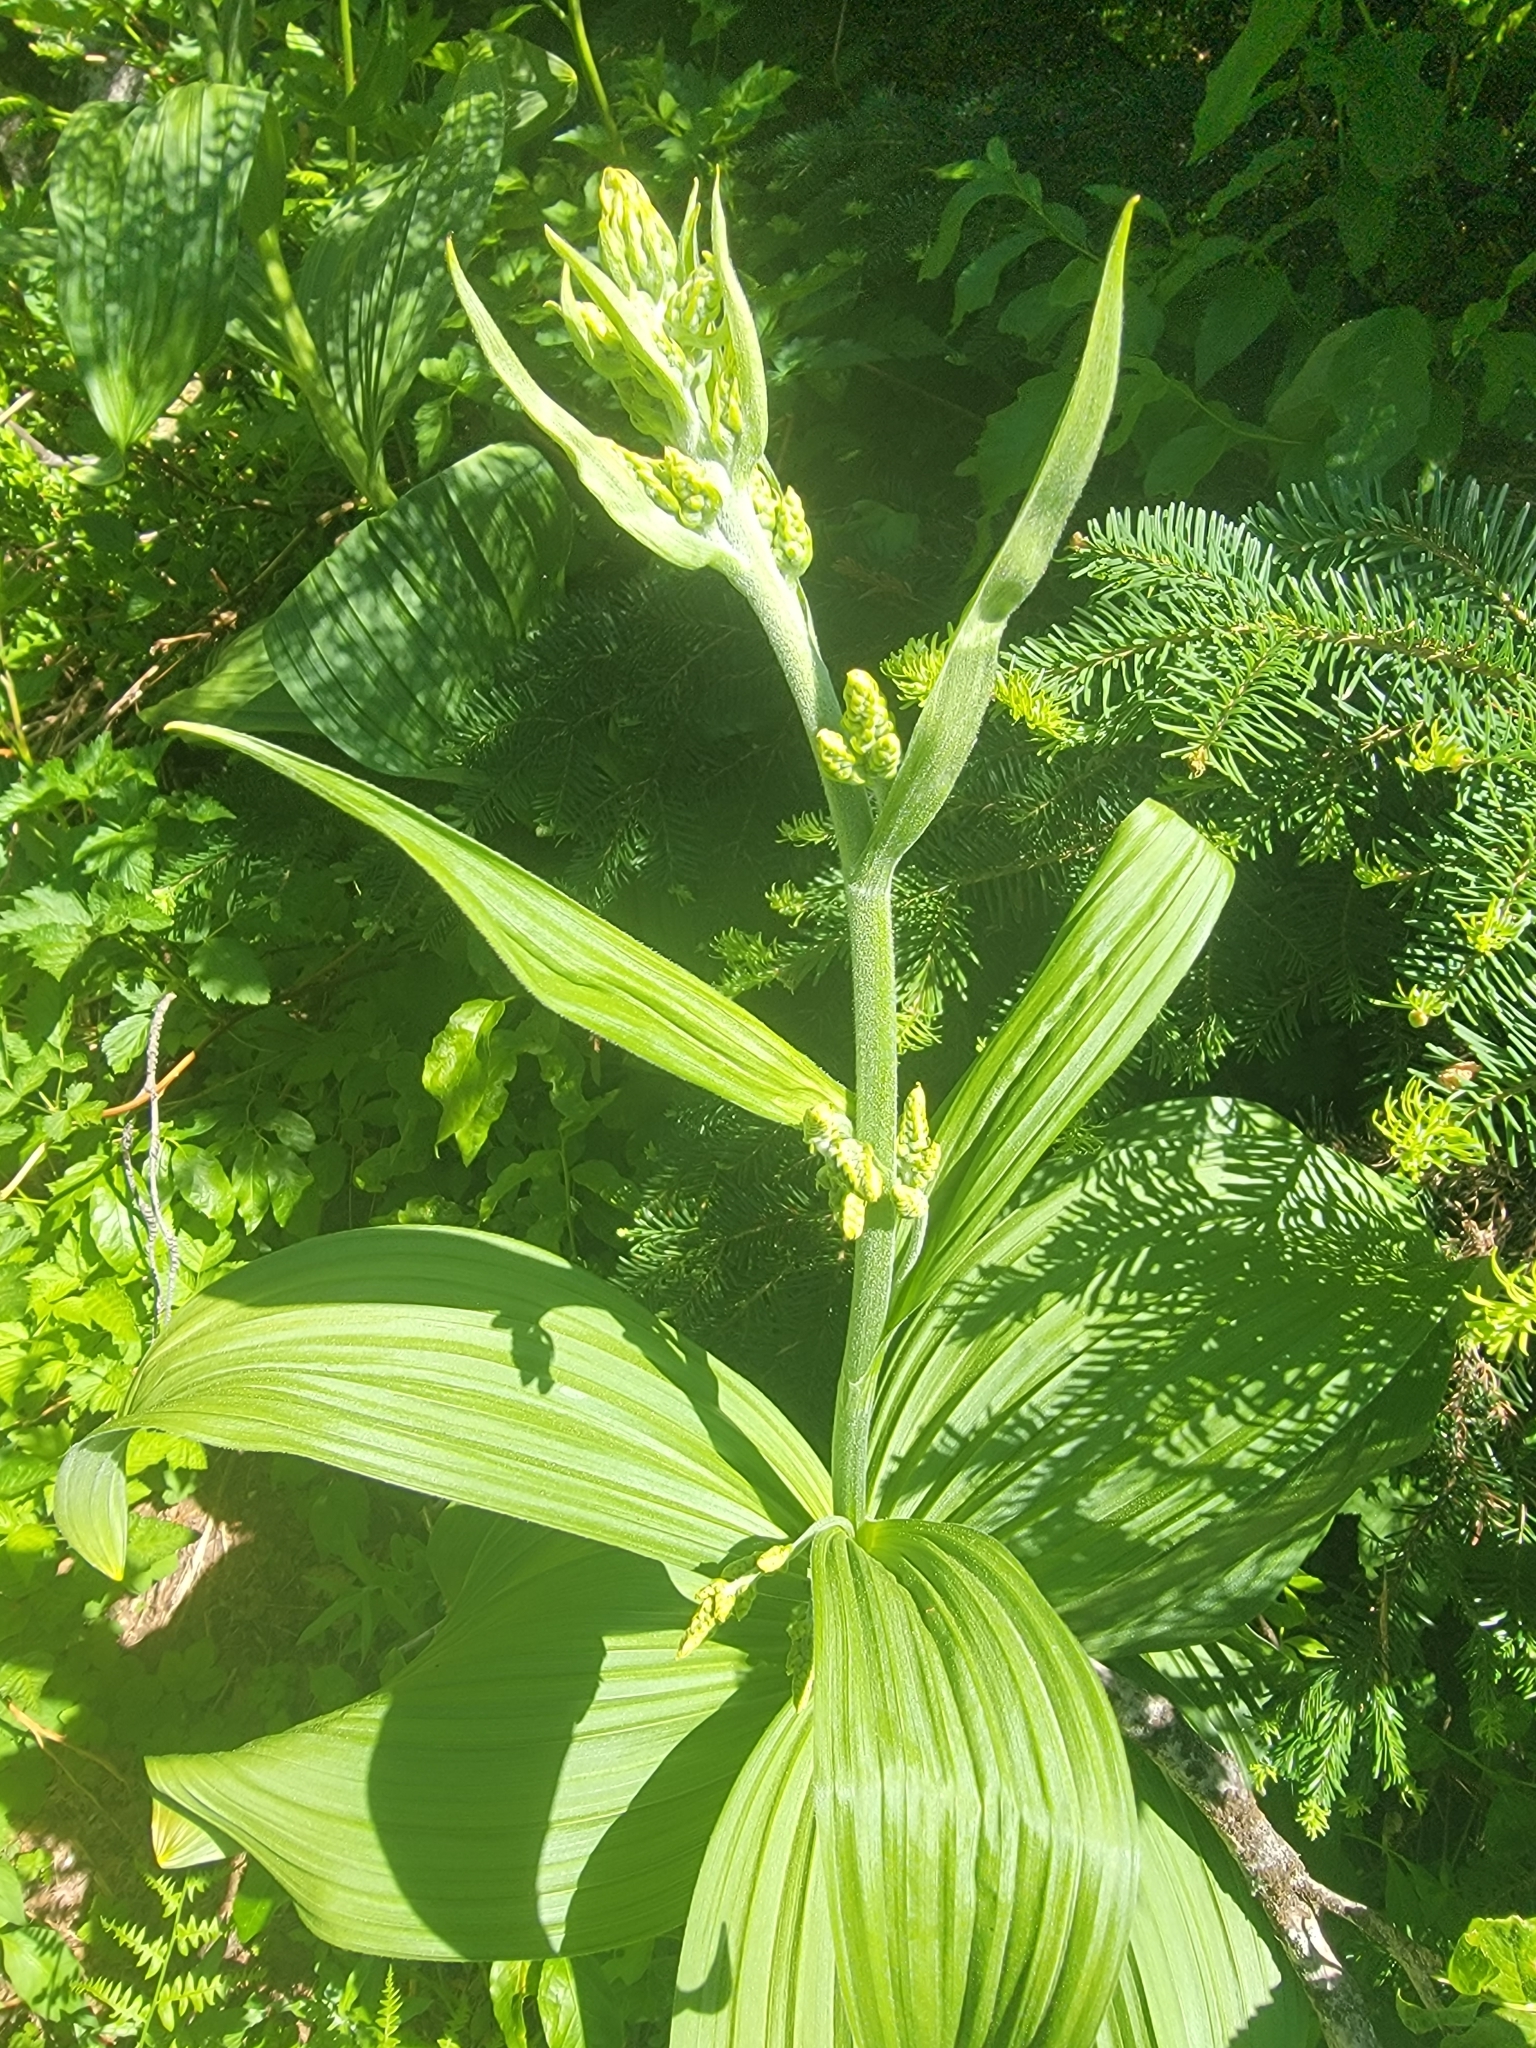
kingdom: Plantae
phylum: Tracheophyta
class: Liliopsida
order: Liliales
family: Melanthiaceae
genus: Veratrum
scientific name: Veratrum viride
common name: American false hellebore
